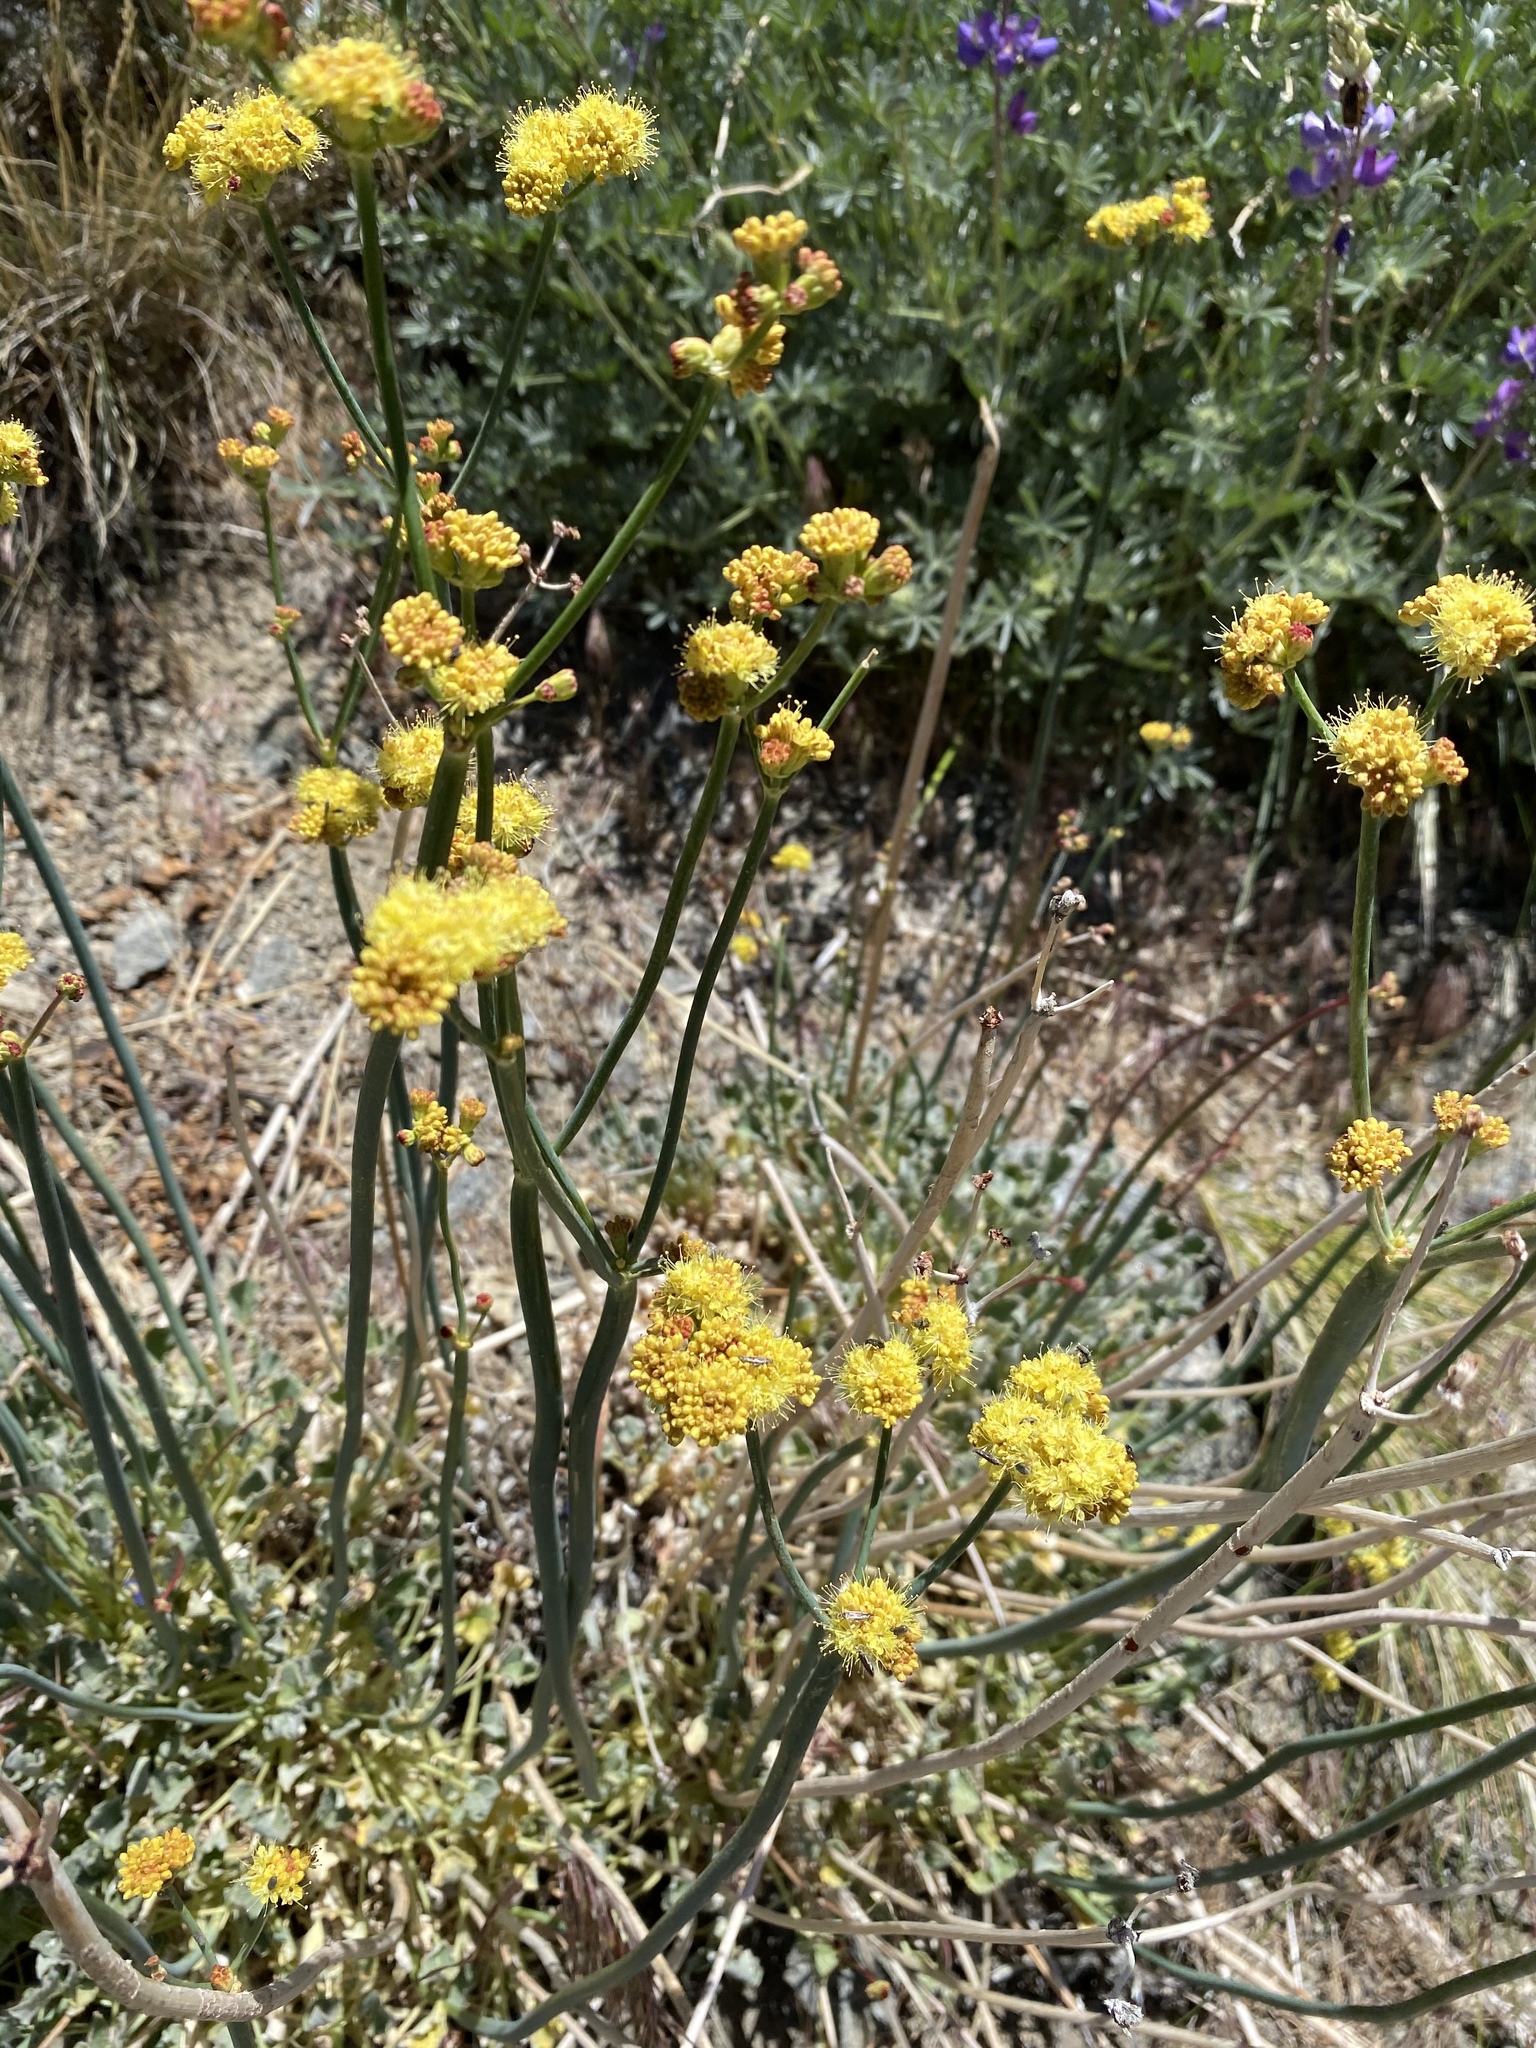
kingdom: Plantae
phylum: Tracheophyta
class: Magnoliopsida
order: Caryophyllales
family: Polygonaceae
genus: Eriogonum
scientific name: Eriogonum nudum
